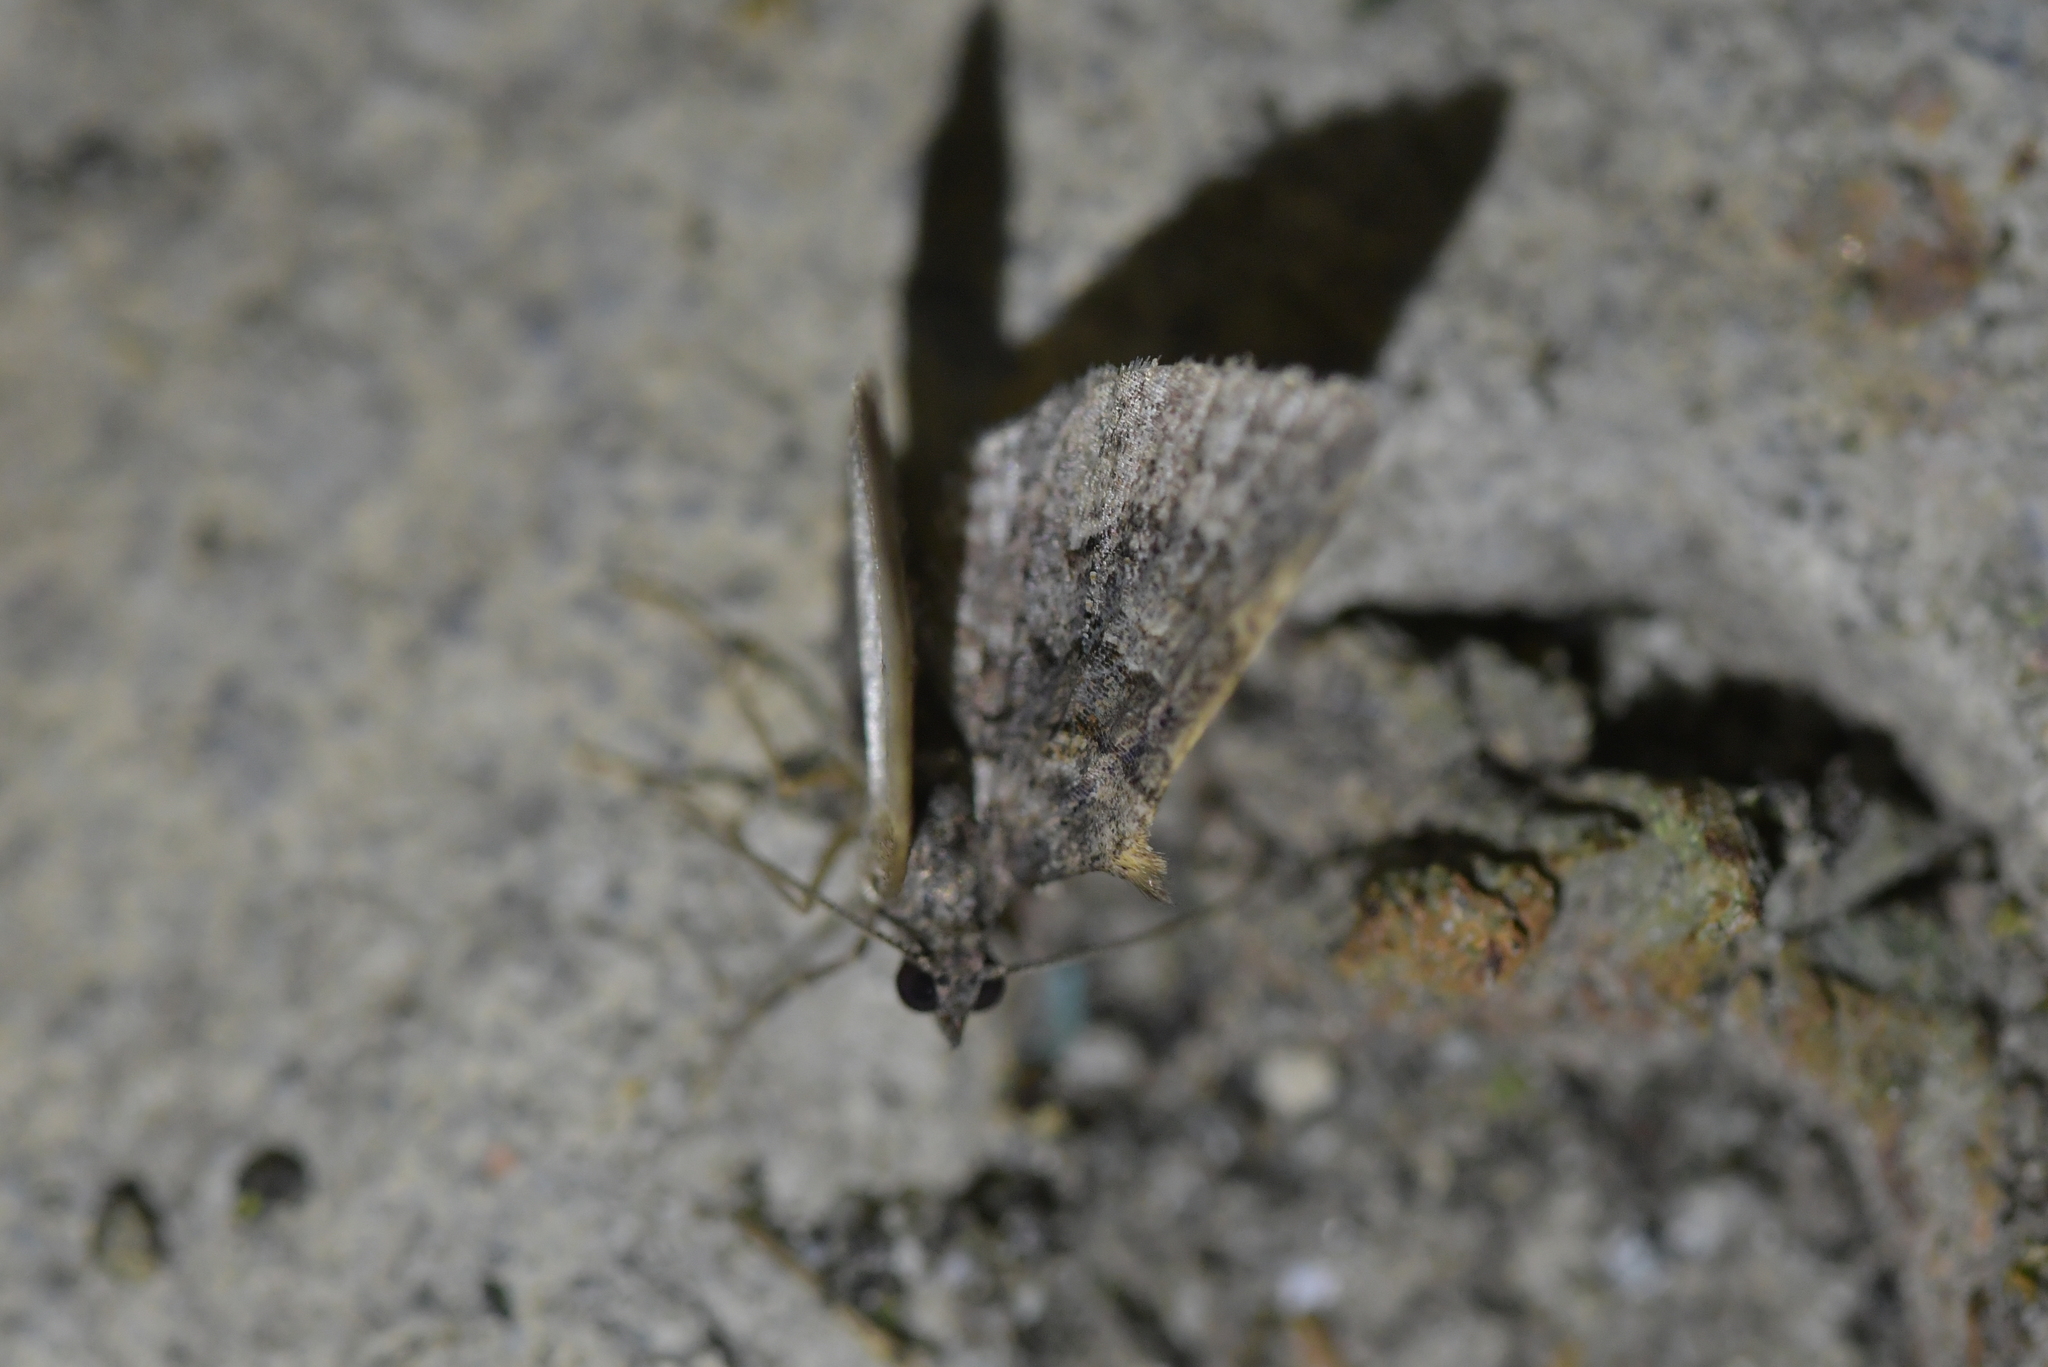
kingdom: Animalia
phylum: Arthropoda
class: Insecta
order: Lepidoptera
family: Geometridae
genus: Phrissogonus
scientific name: Phrissogonus laticostata
